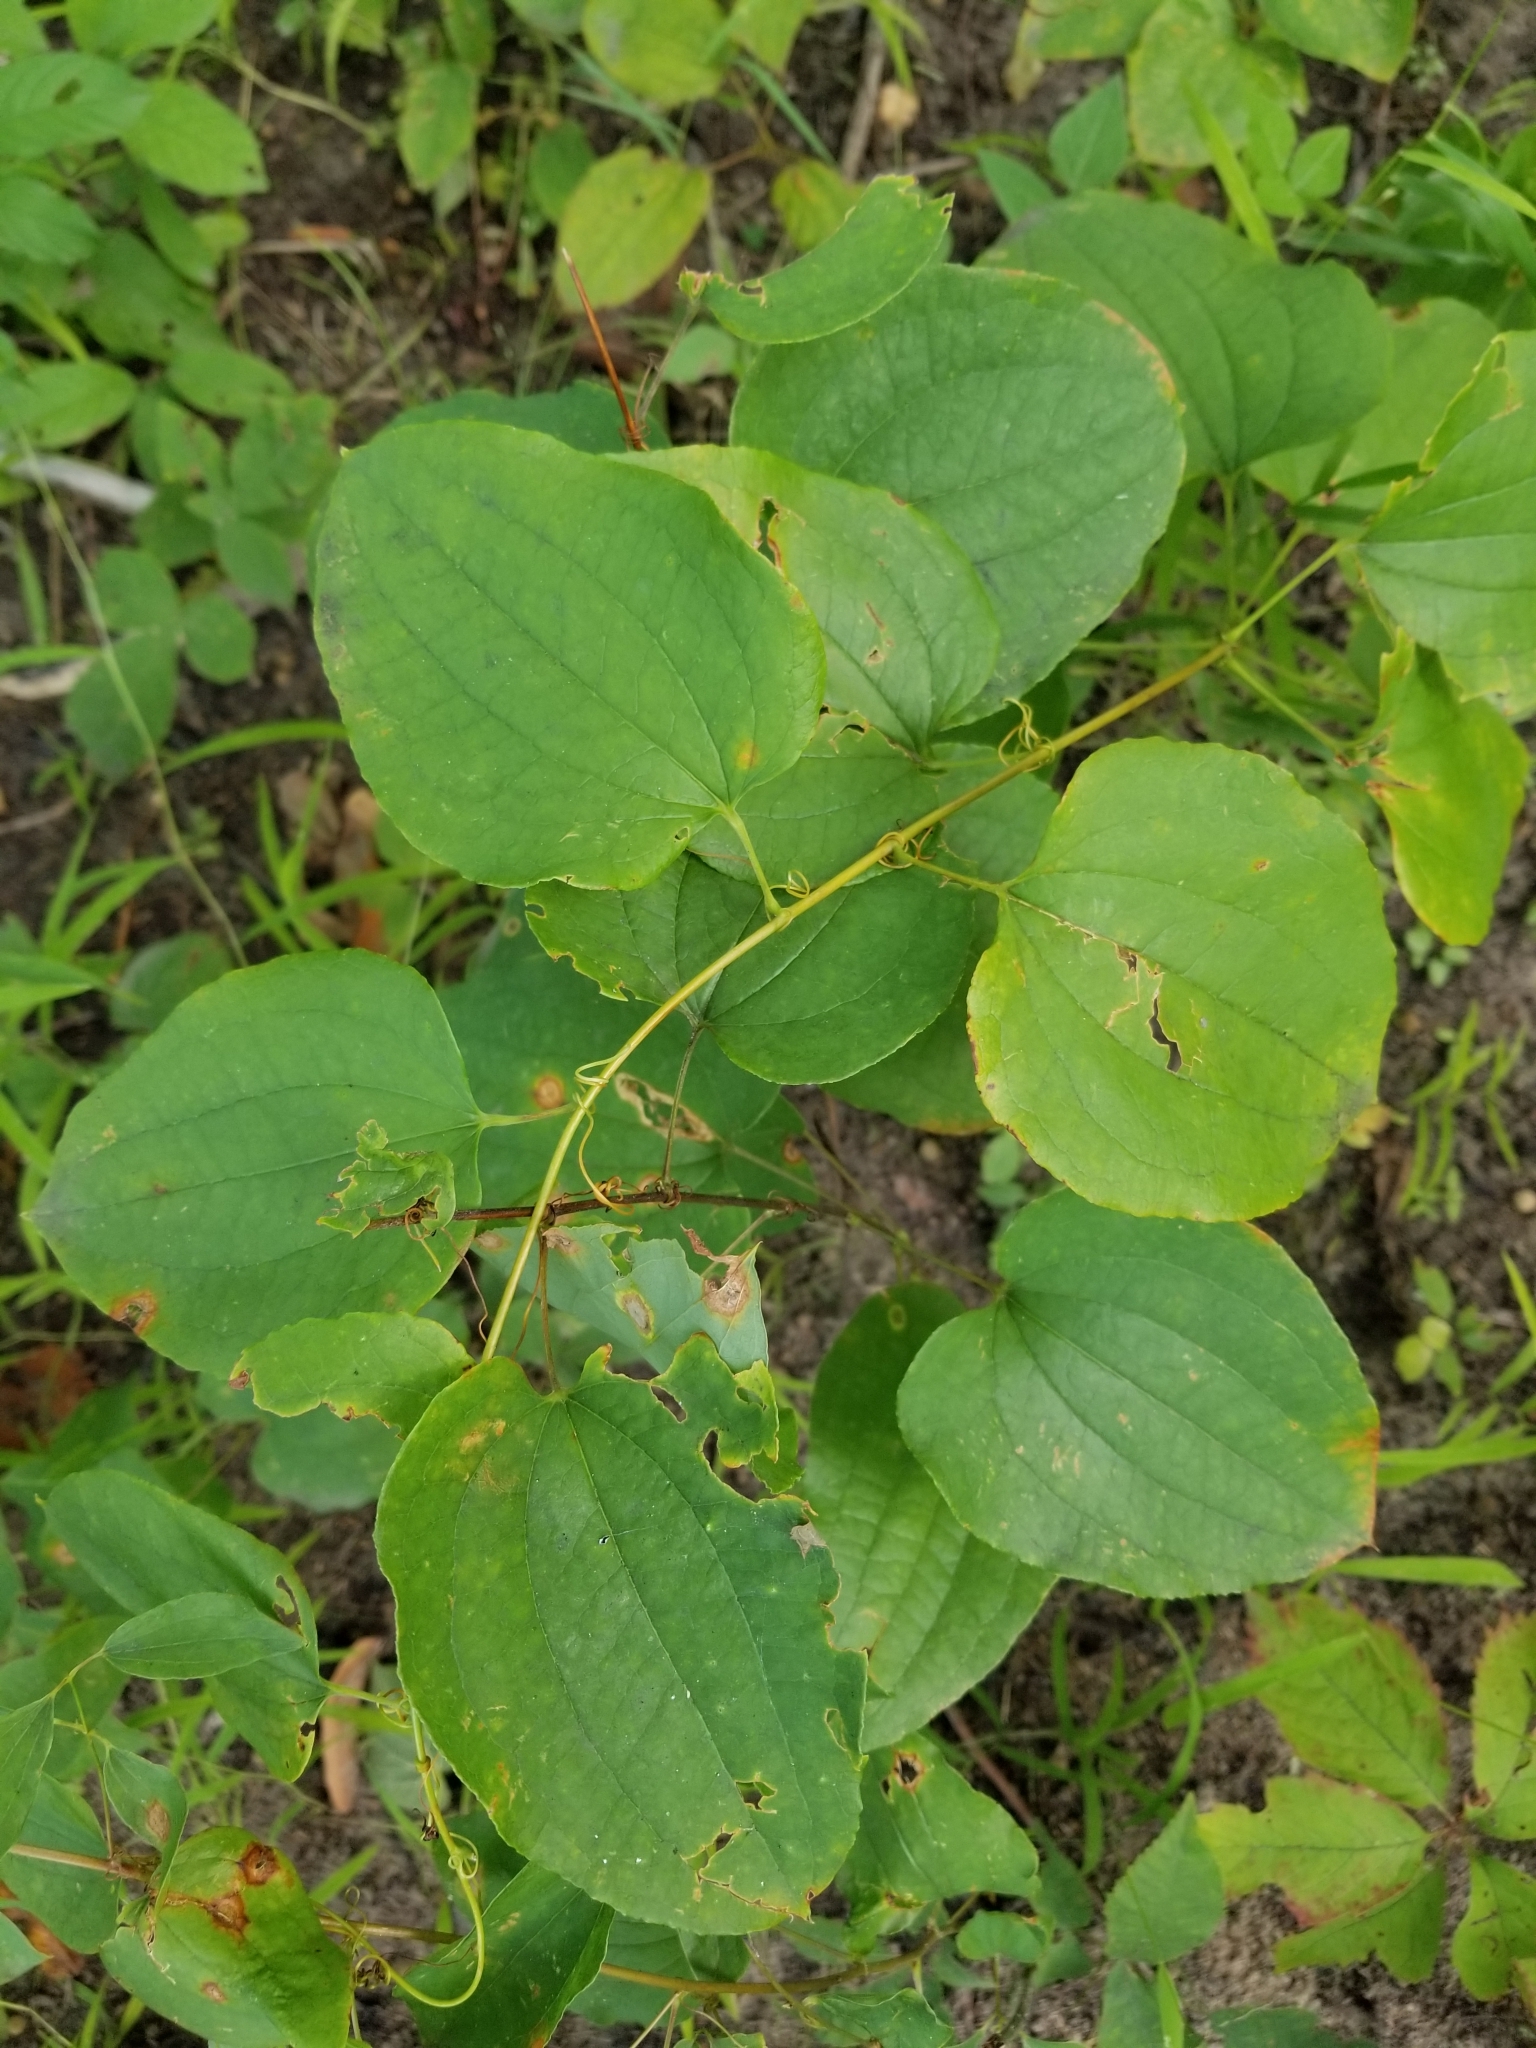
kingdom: Plantae
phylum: Tracheophyta
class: Liliopsida
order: Liliales
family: Smilacaceae
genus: Smilax
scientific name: Smilax herbacea
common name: Jacob's-ladder
